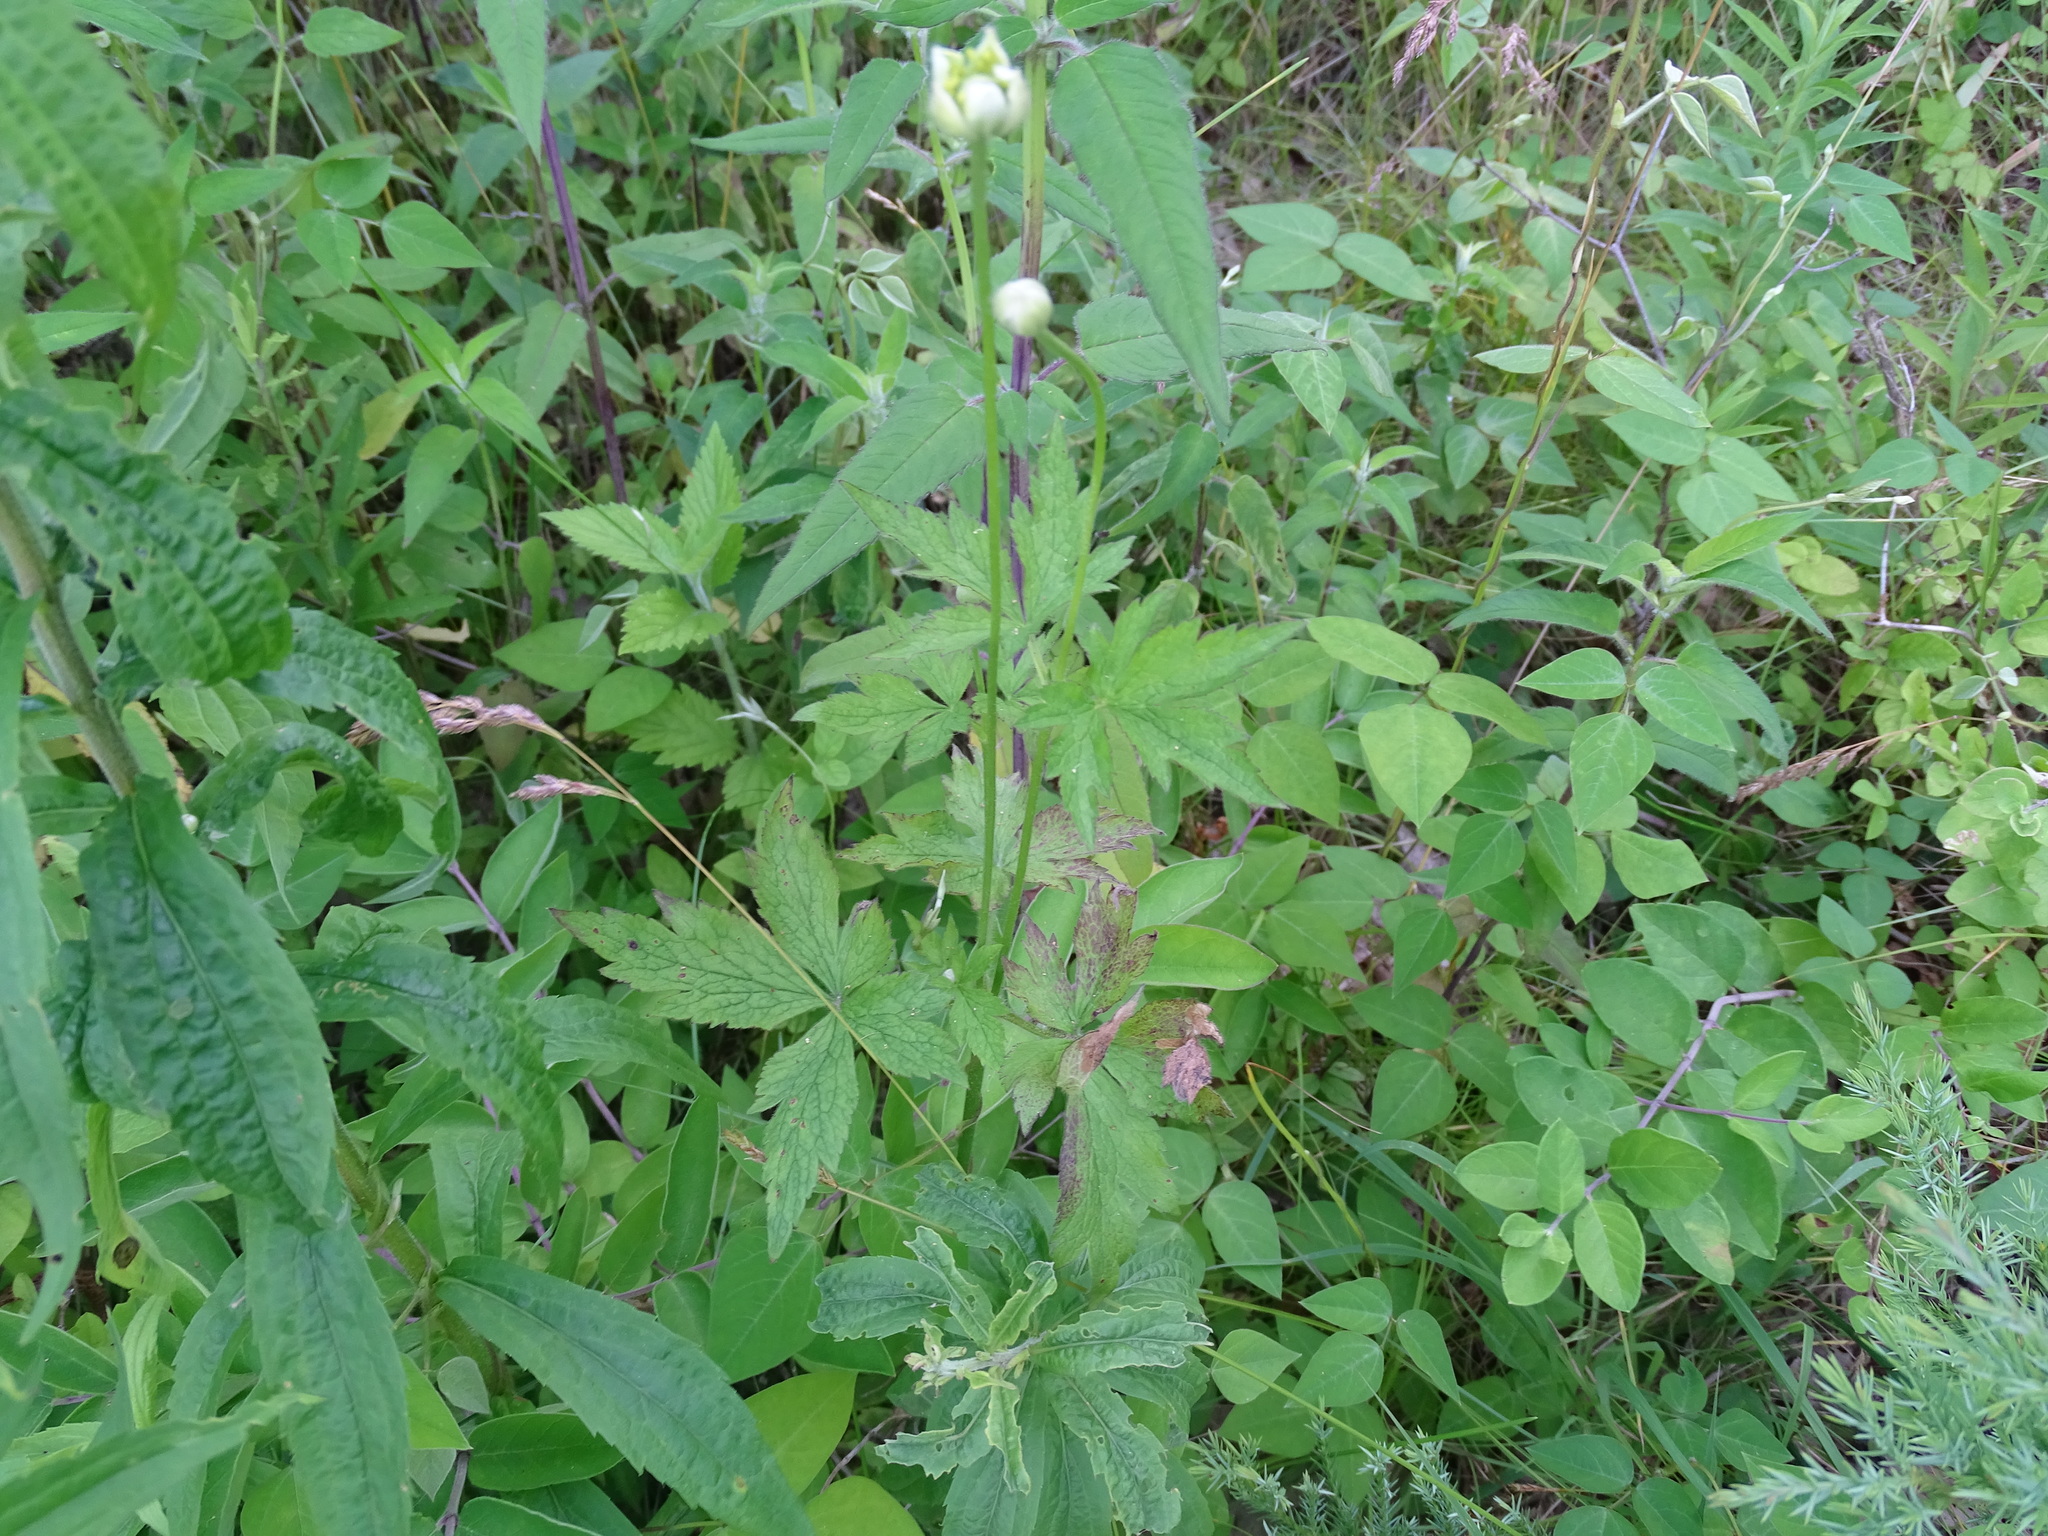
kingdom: Plantae
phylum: Tracheophyta
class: Magnoliopsida
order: Ranunculales
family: Ranunculaceae
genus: Anemone
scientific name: Anemone virginiana
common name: Tall anemone
